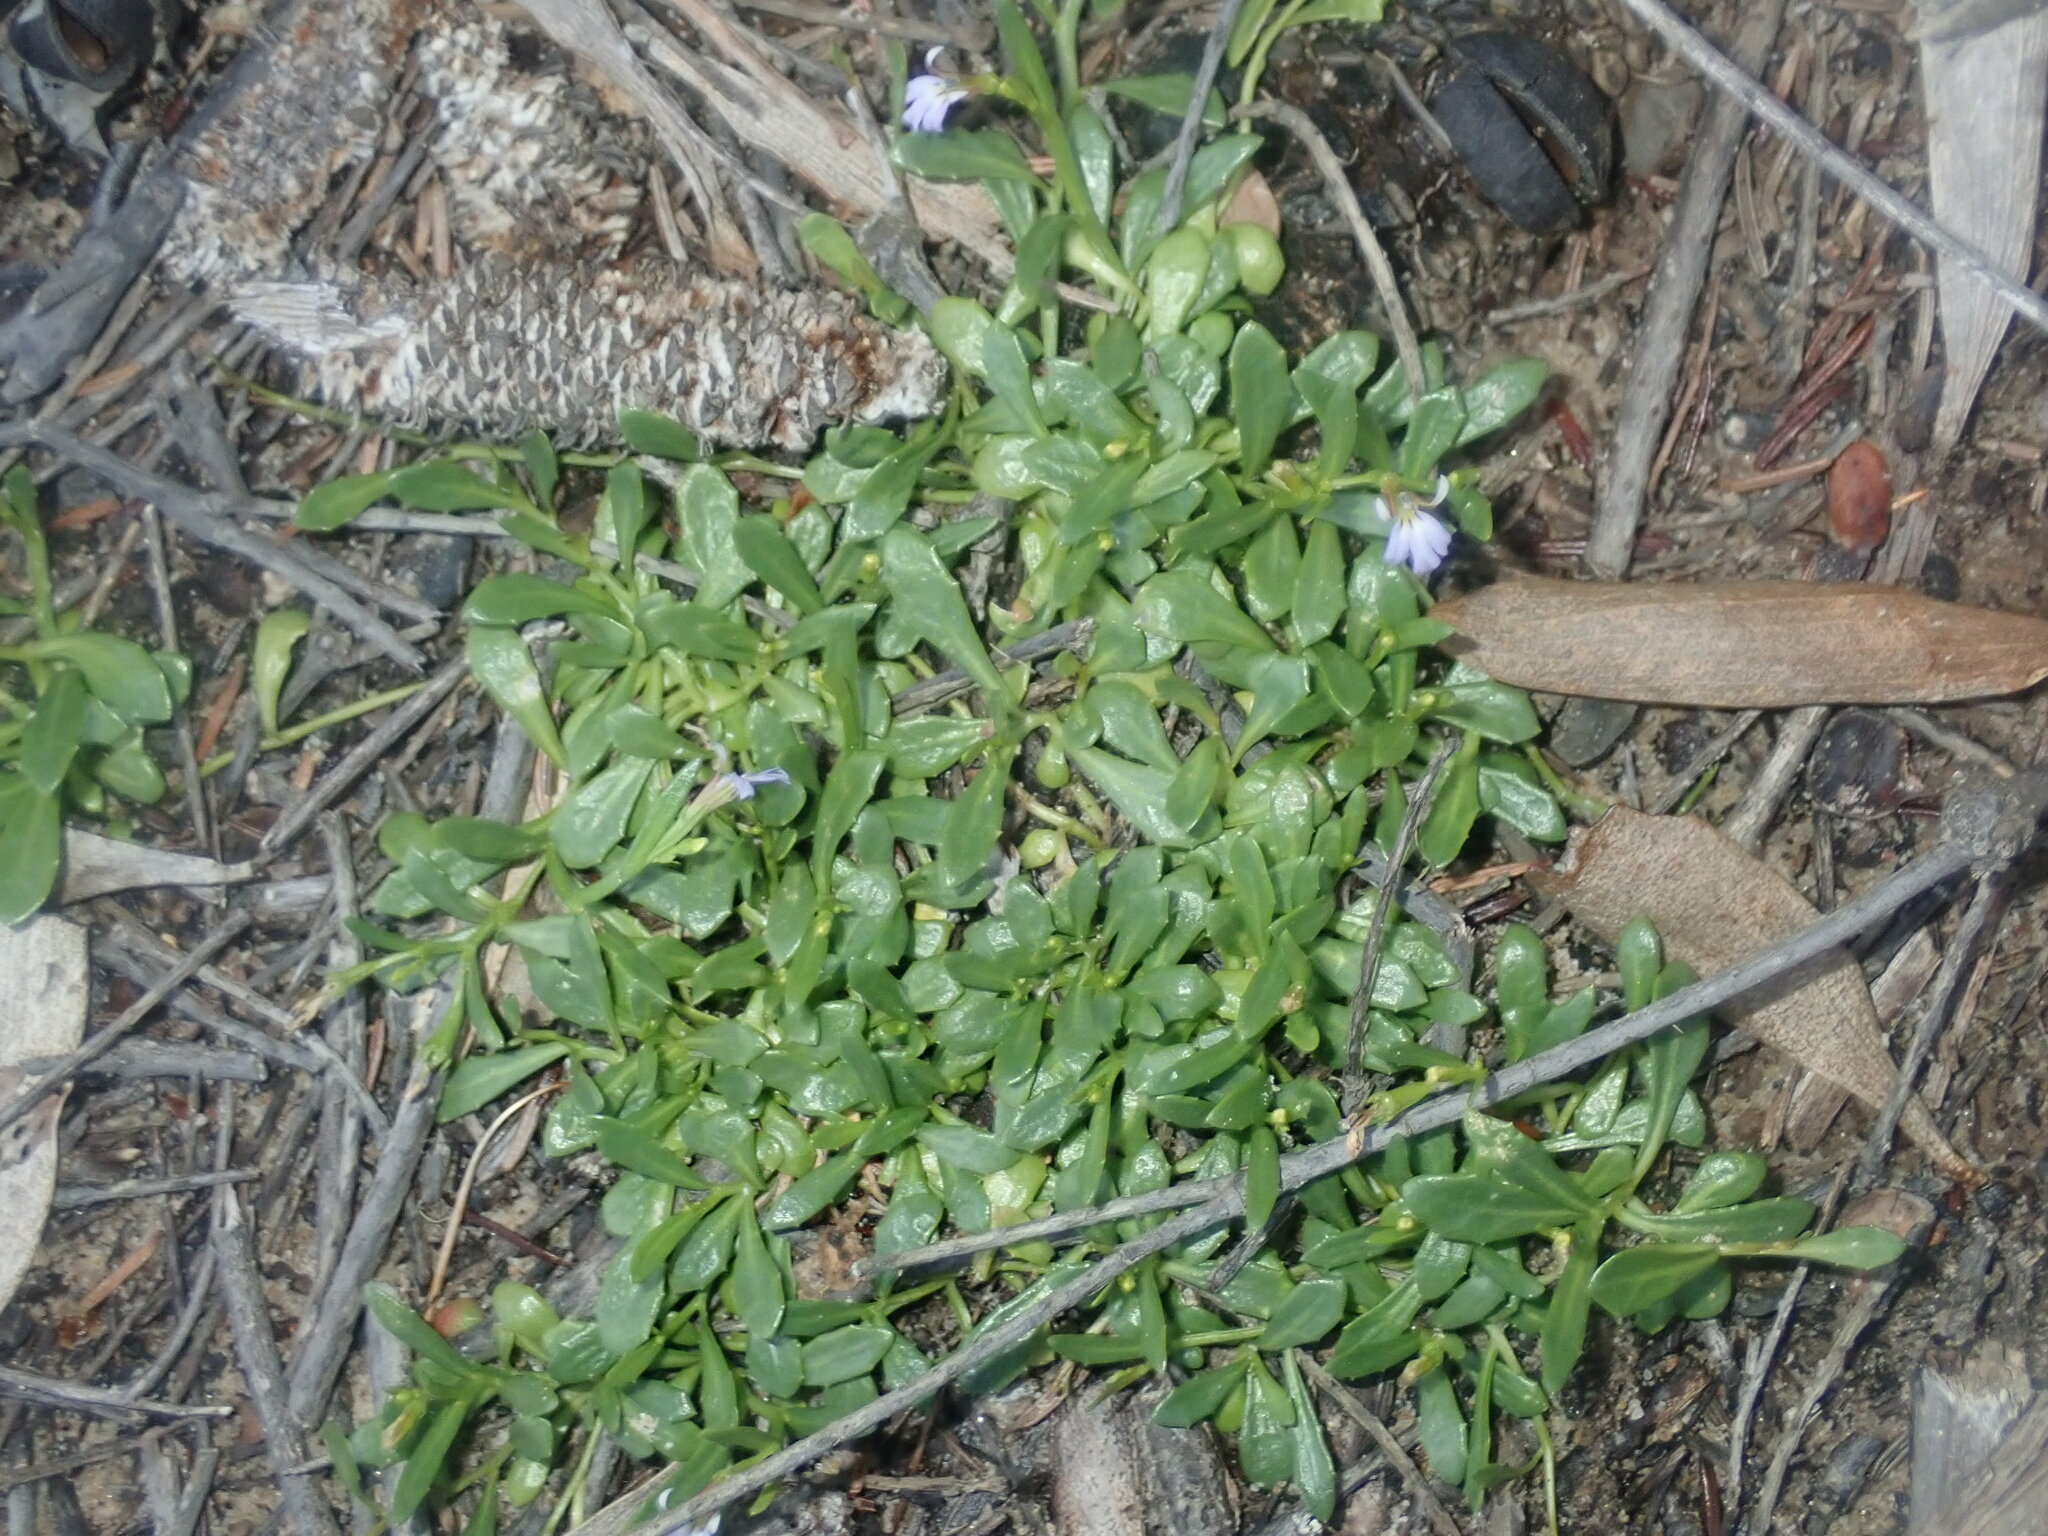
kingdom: Plantae
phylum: Tracheophyta
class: Magnoliopsida
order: Asterales
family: Campanulaceae
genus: Lobelia
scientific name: Lobelia anceps
